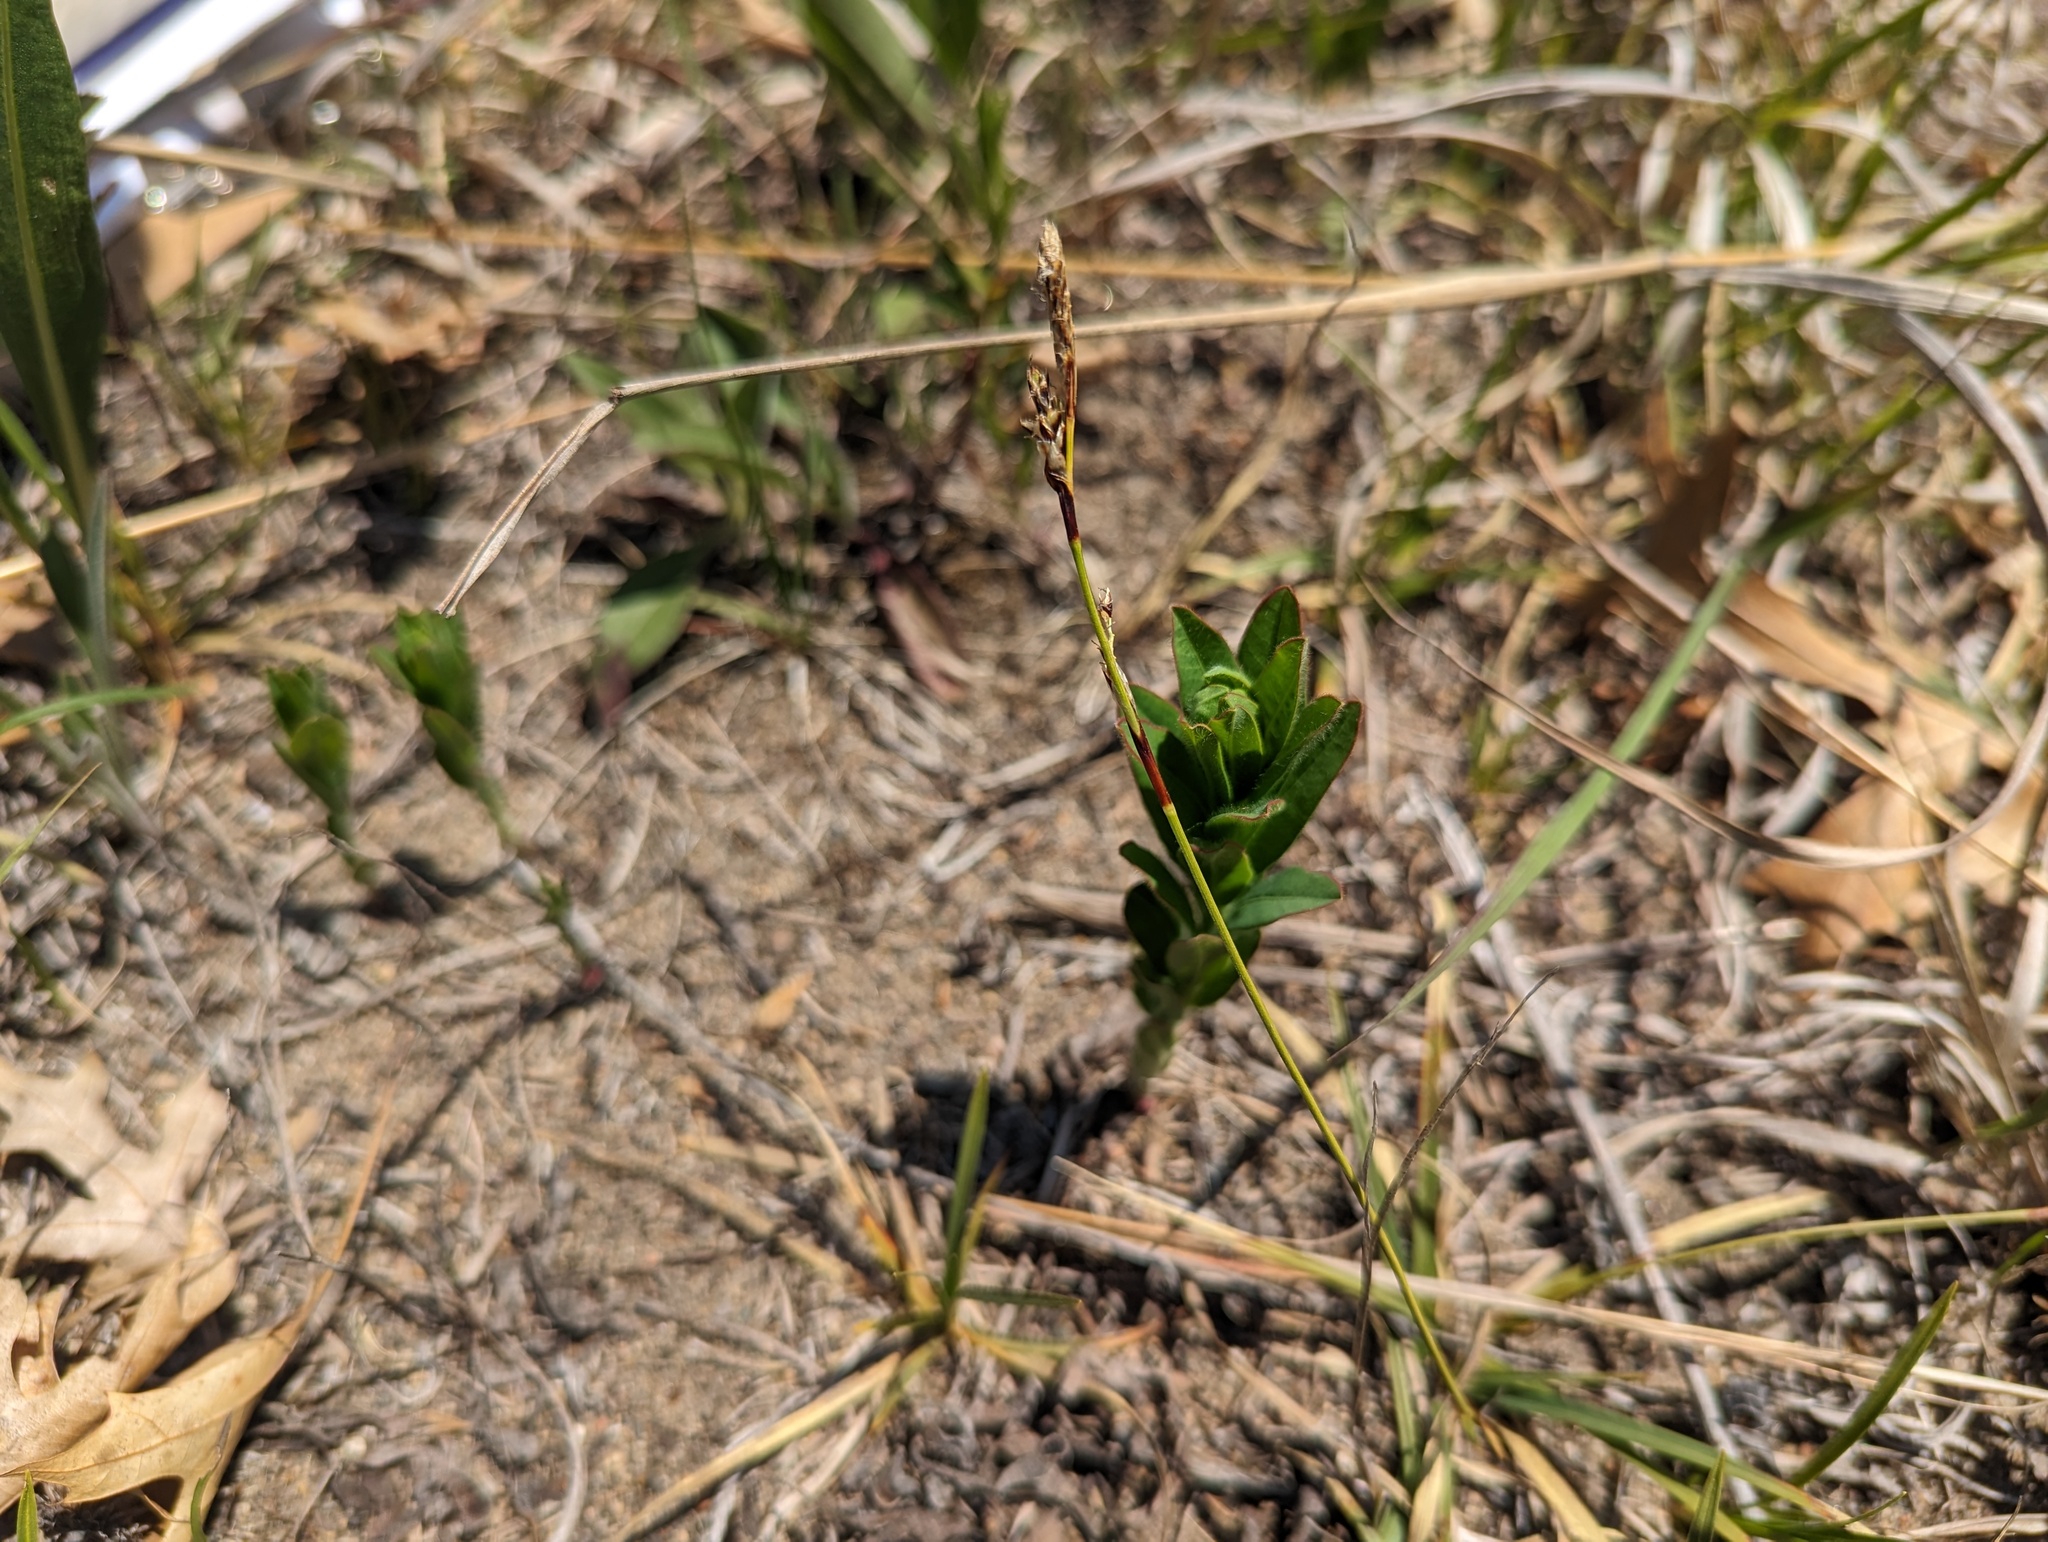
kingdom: Plantae
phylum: Tracheophyta
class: Liliopsida
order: Poales
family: Cyperaceae
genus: Carex
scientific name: Carex richardsonii
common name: Prairie hummock sedge
